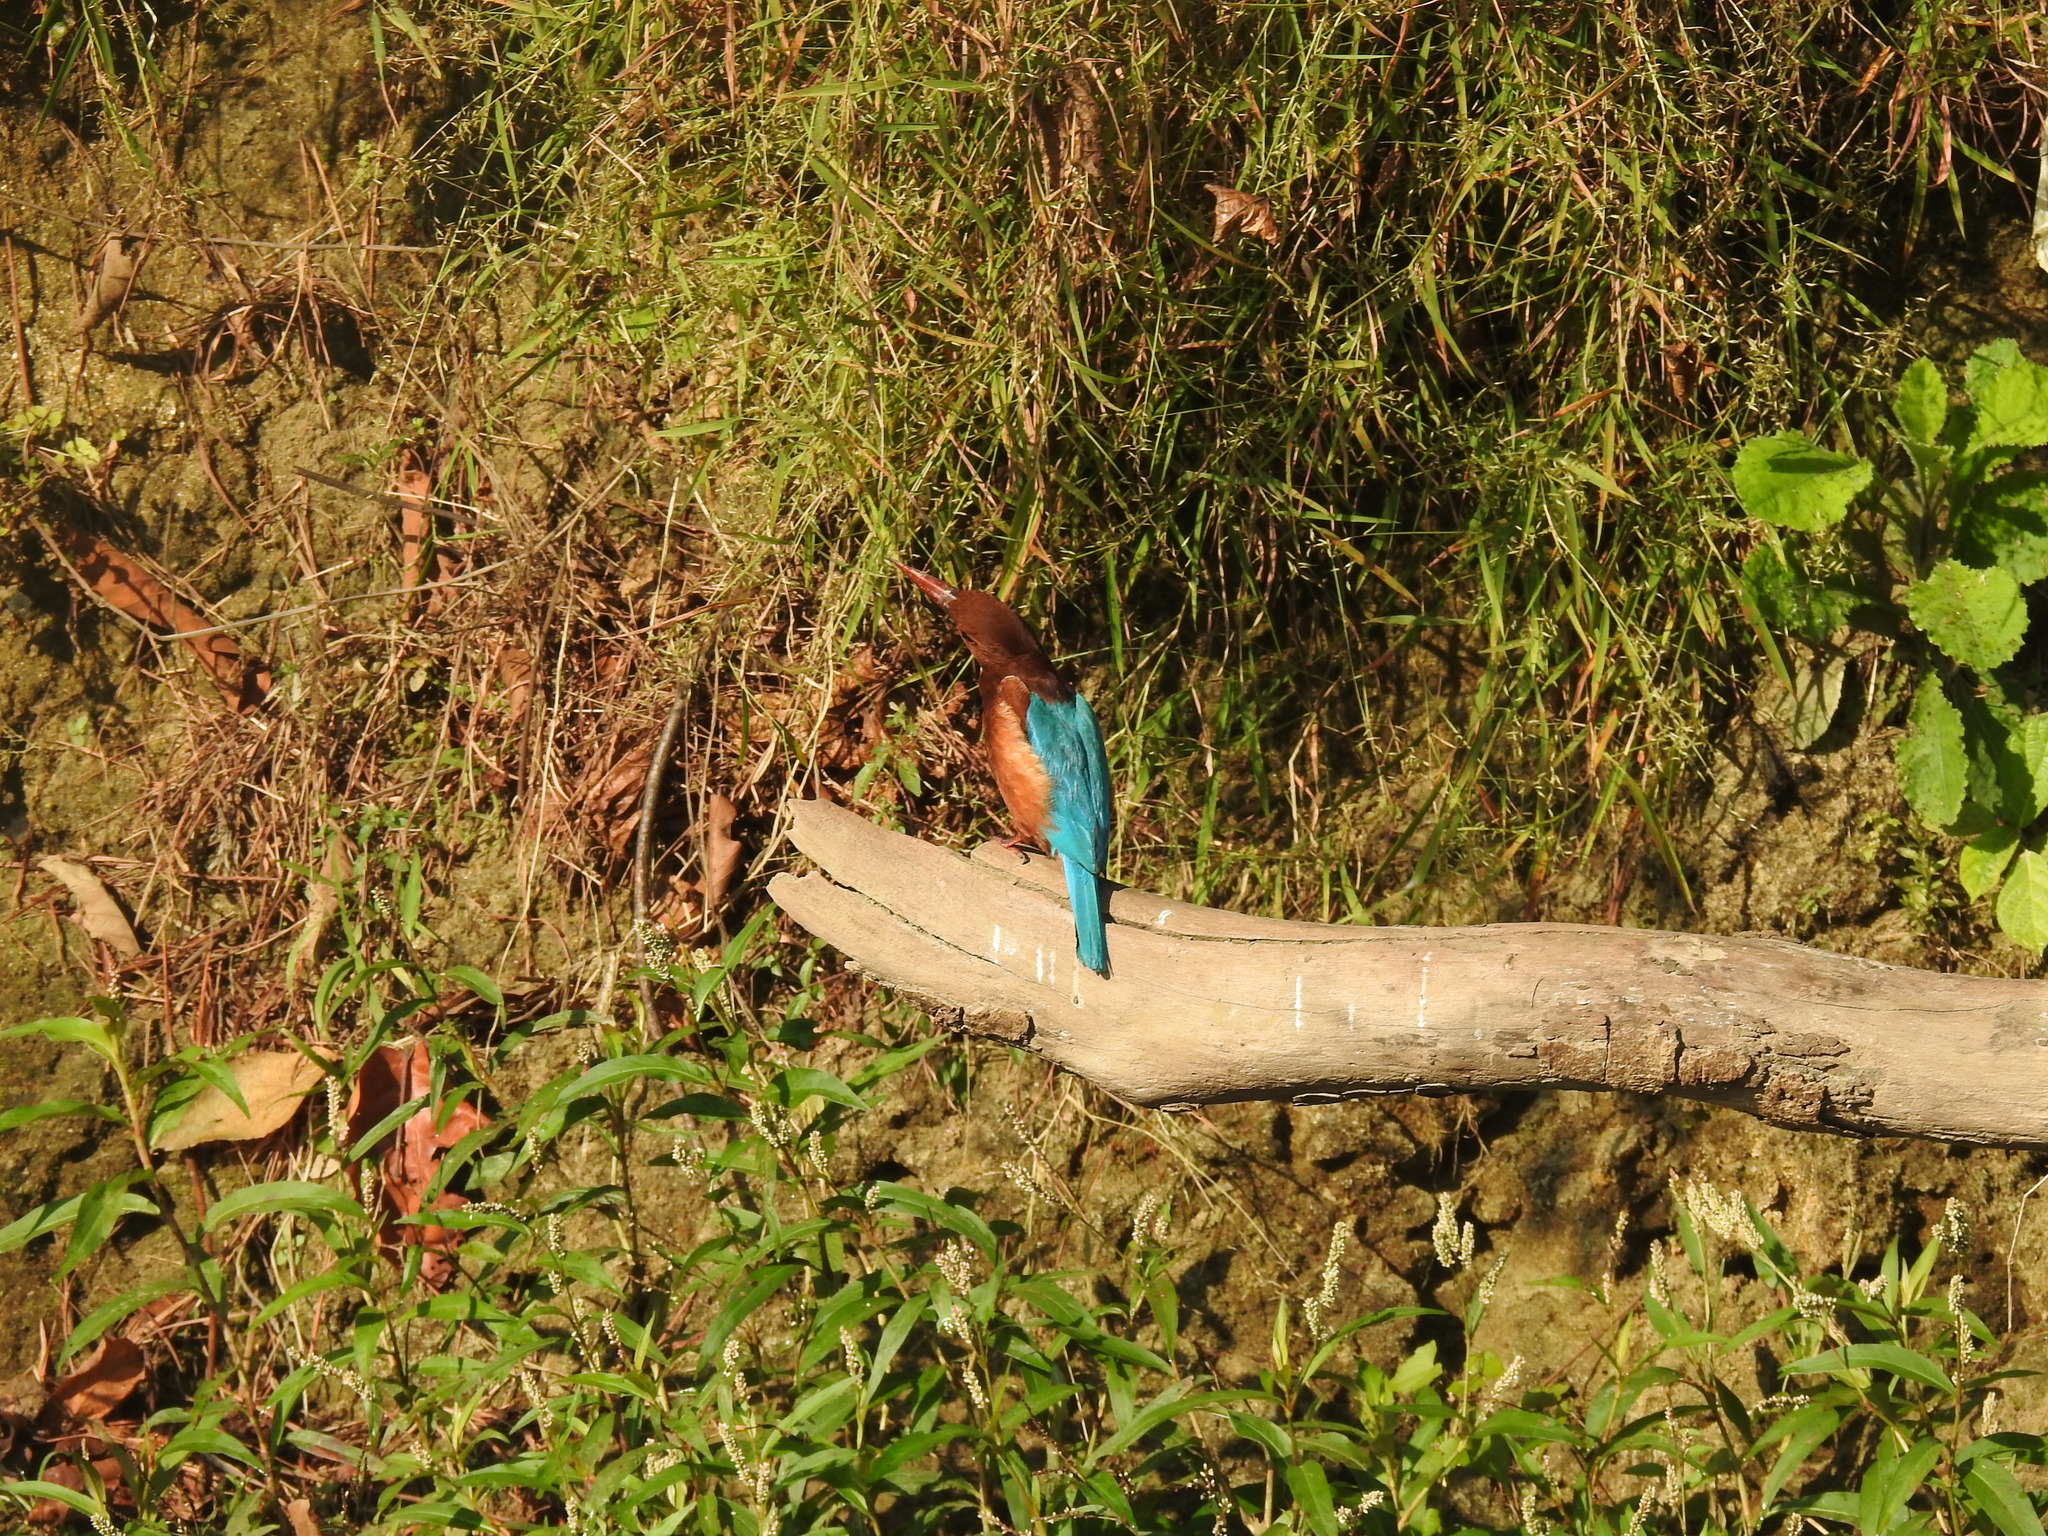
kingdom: Animalia
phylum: Chordata
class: Aves
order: Coraciiformes
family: Alcedinidae
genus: Halcyon
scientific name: Halcyon smyrnensis
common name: White-throated kingfisher
